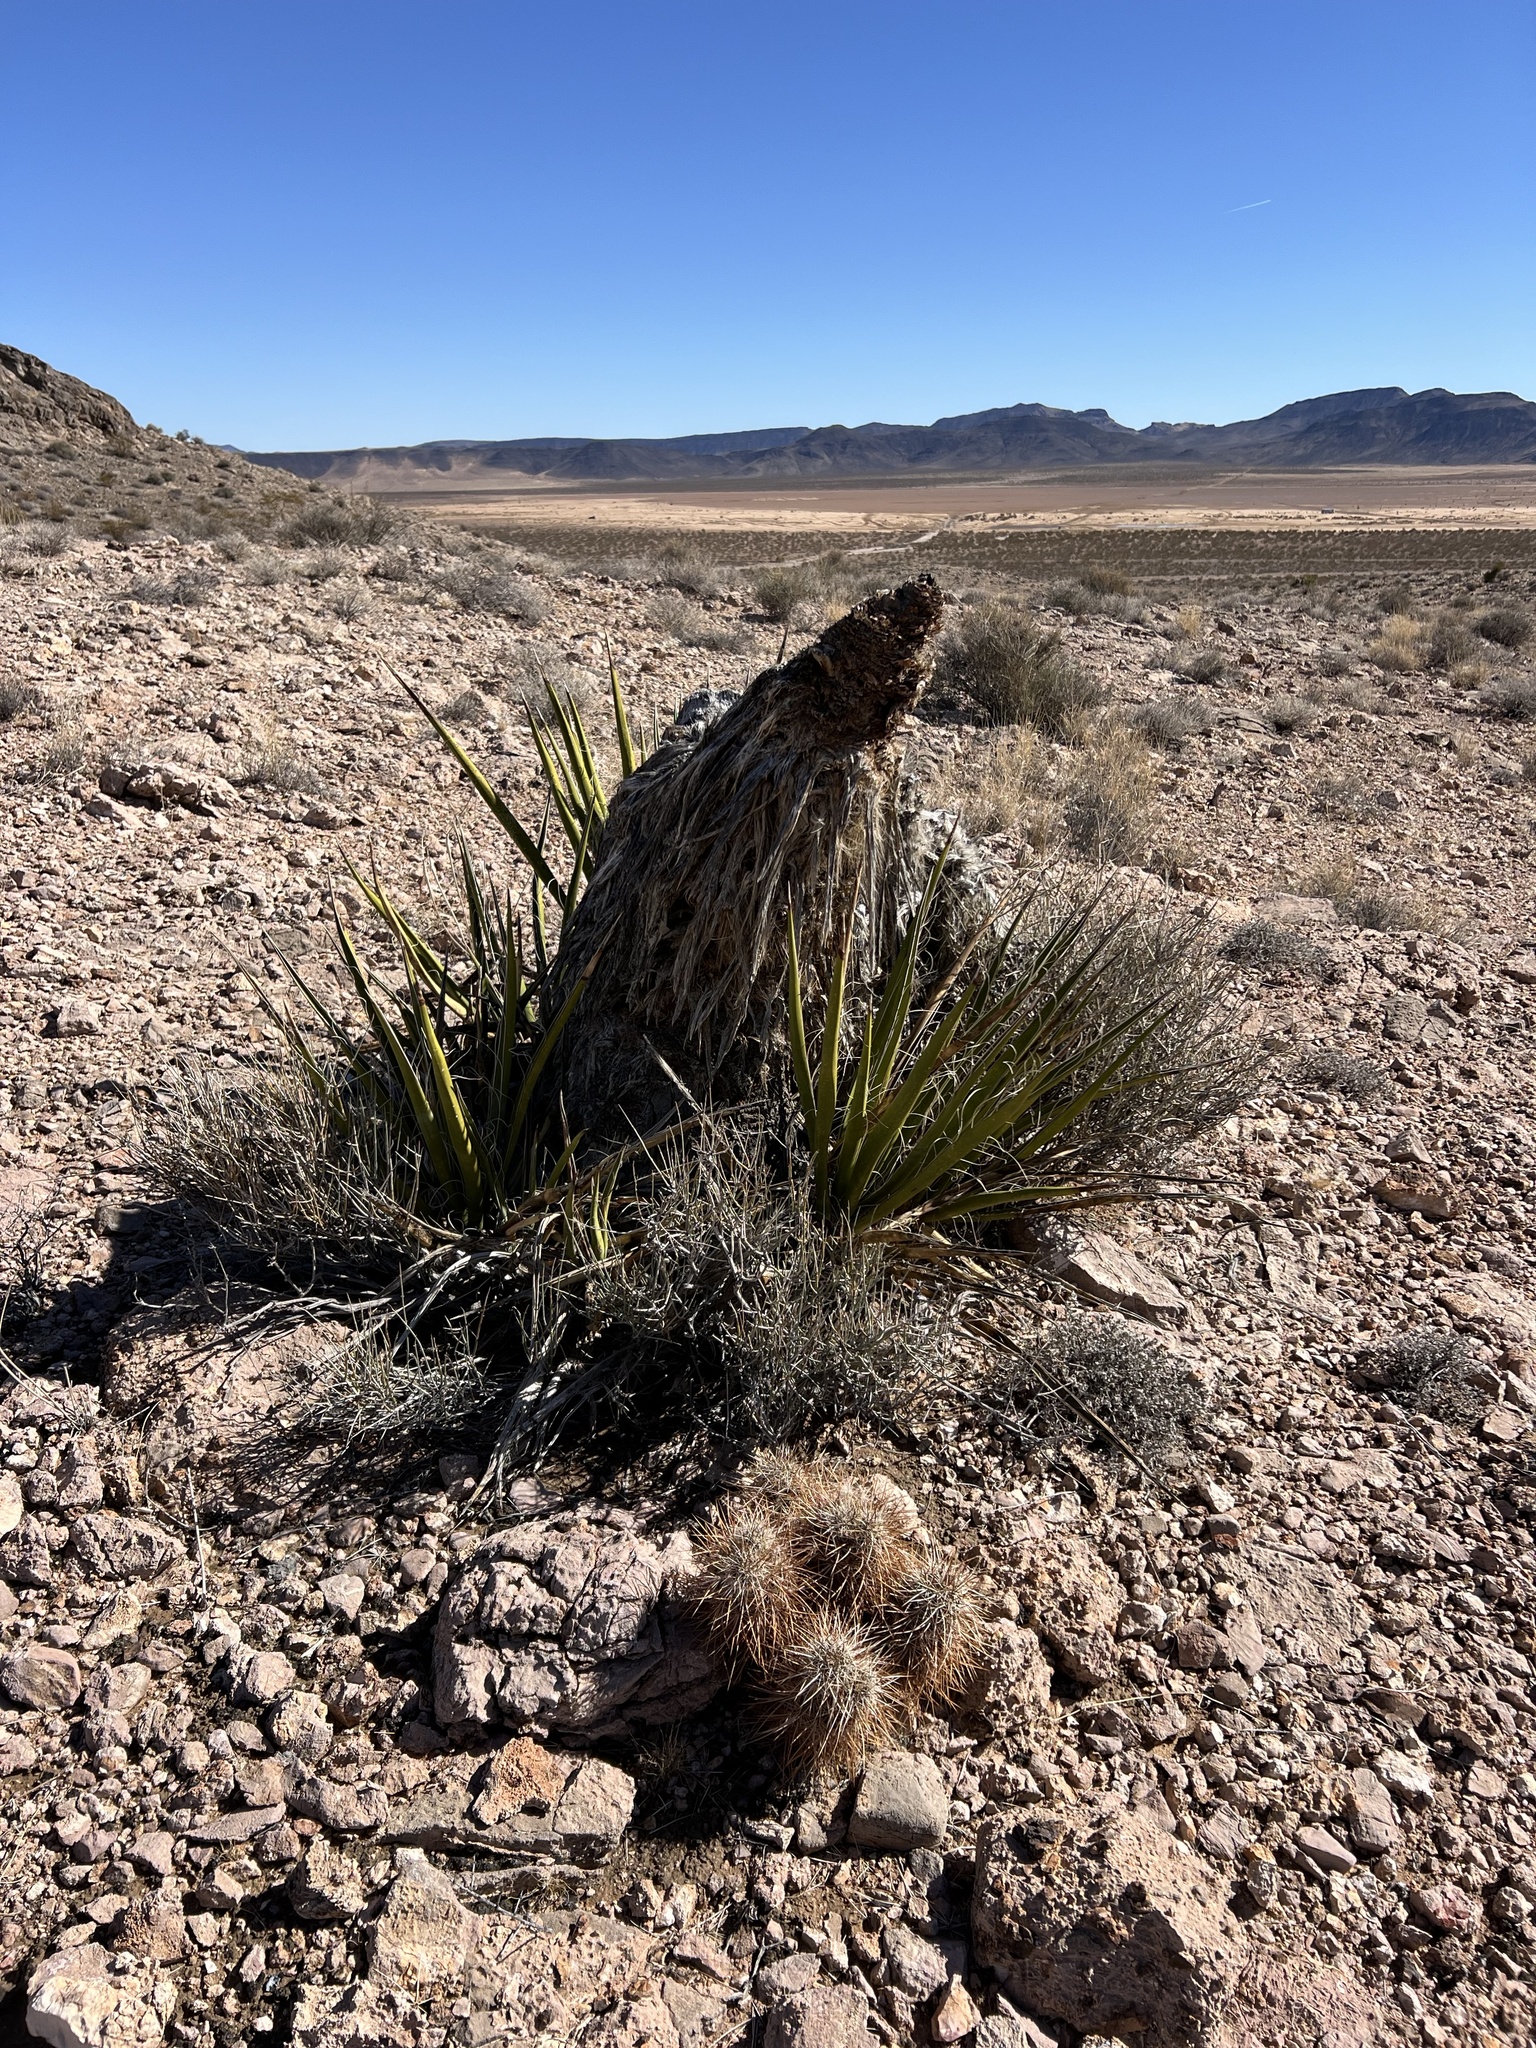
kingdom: Plantae
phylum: Tracheophyta
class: Liliopsida
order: Asparagales
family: Asparagaceae
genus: Yucca
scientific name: Yucca schidigera
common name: Mojave yucca
